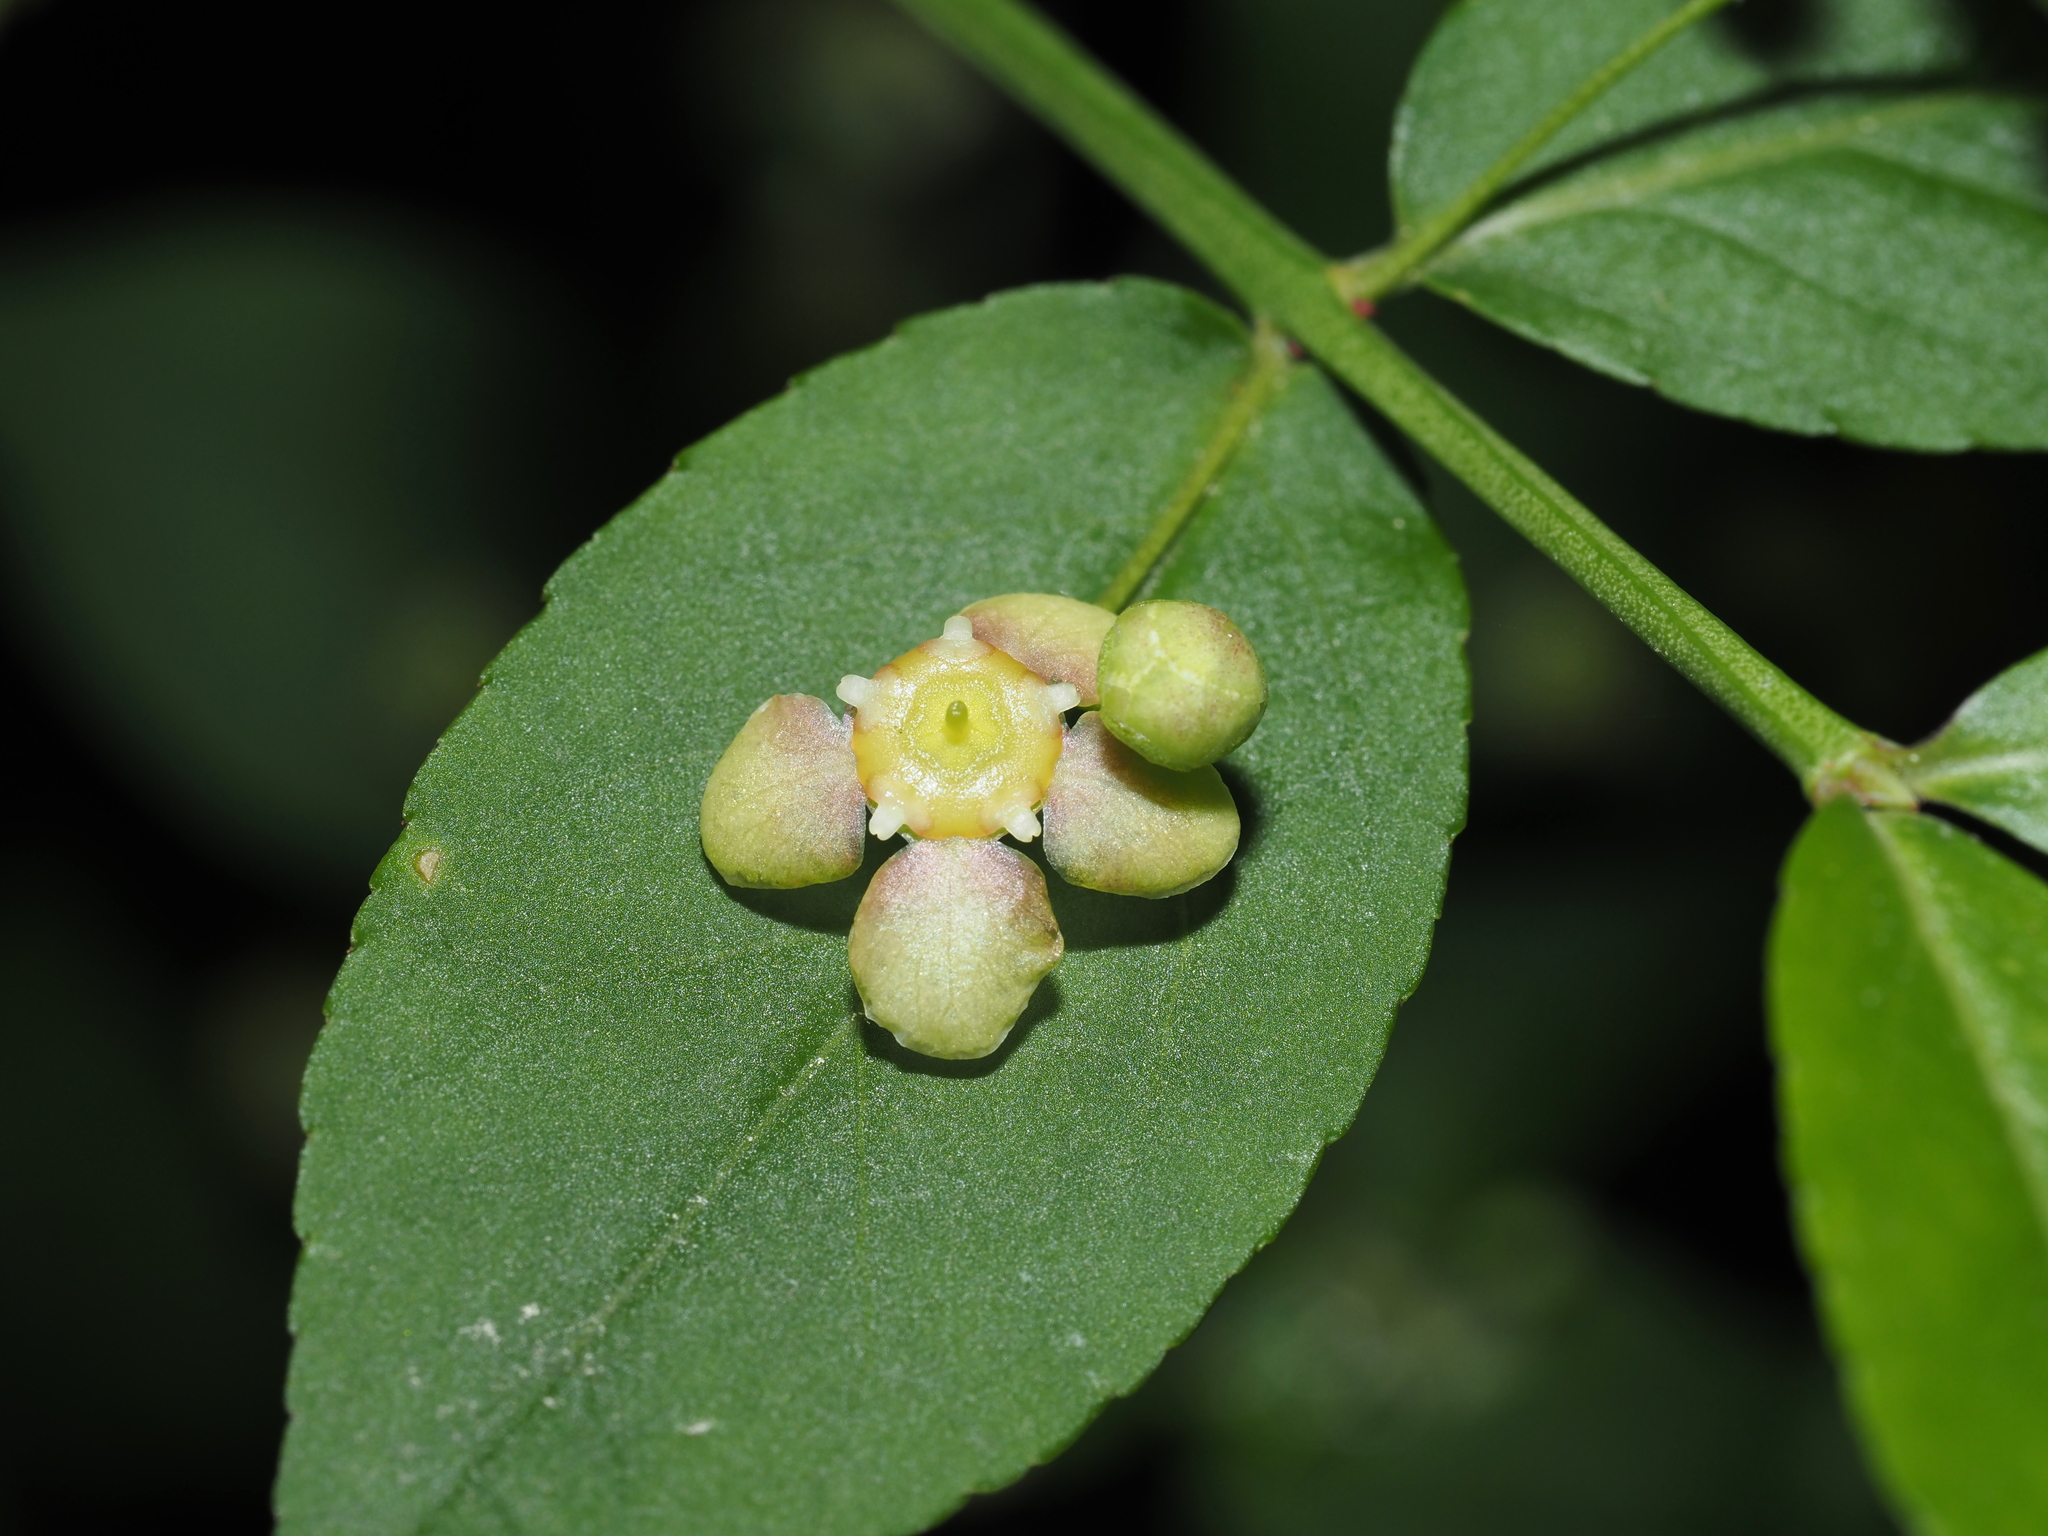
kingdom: Plantae
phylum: Tracheophyta
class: Magnoliopsida
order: Celastrales
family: Celastraceae
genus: Euonymus
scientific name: Euonymus americanus
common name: Bursting-heart
